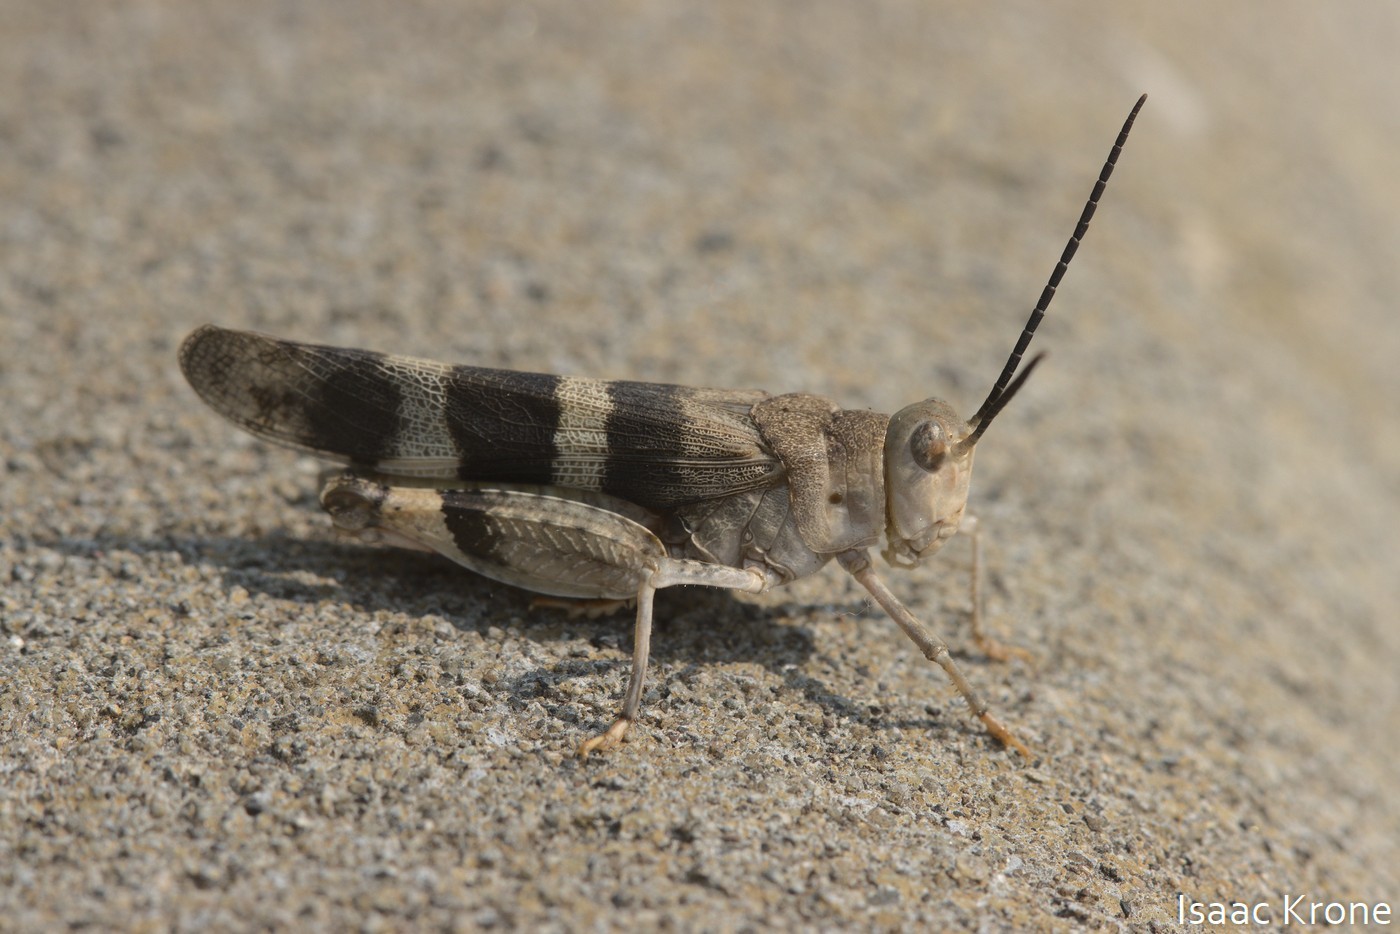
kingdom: Animalia
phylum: Arthropoda
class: Insecta
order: Orthoptera
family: Acrididae
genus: Hadrotettix
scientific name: Hadrotettix trifasciatus
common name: Threebanded grasshopper
